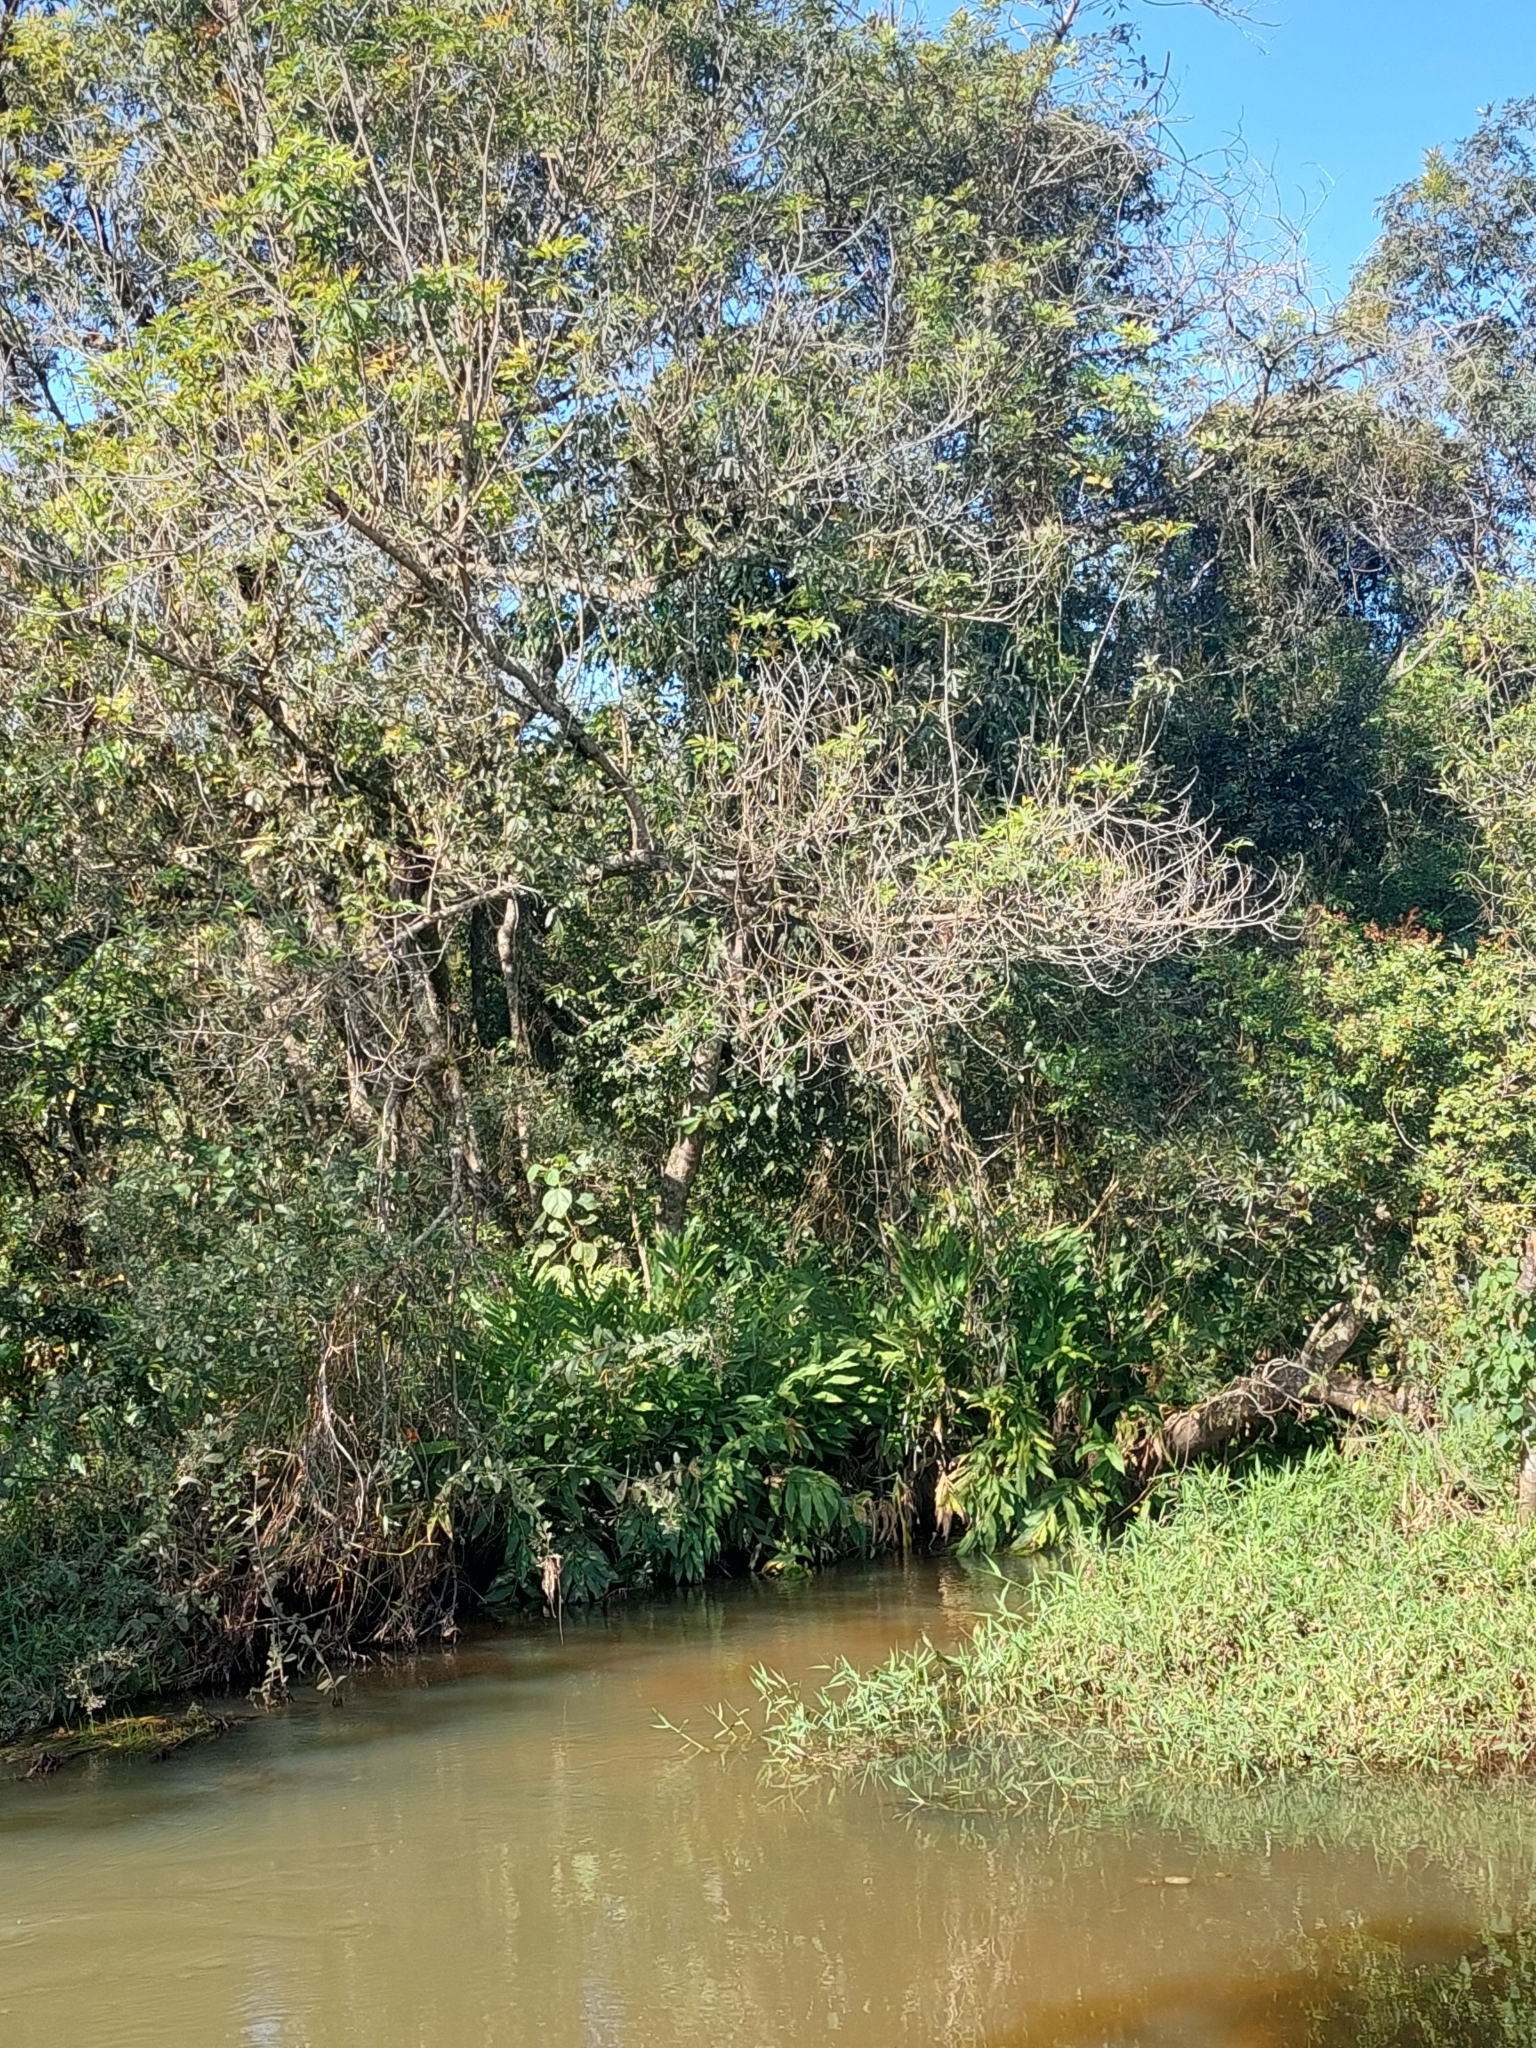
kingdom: Plantae
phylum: Tracheophyta
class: Liliopsida
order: Zingiberales
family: Zingiberaceae
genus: Hedychium
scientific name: Hedychium coronarium
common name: White garland-lily
